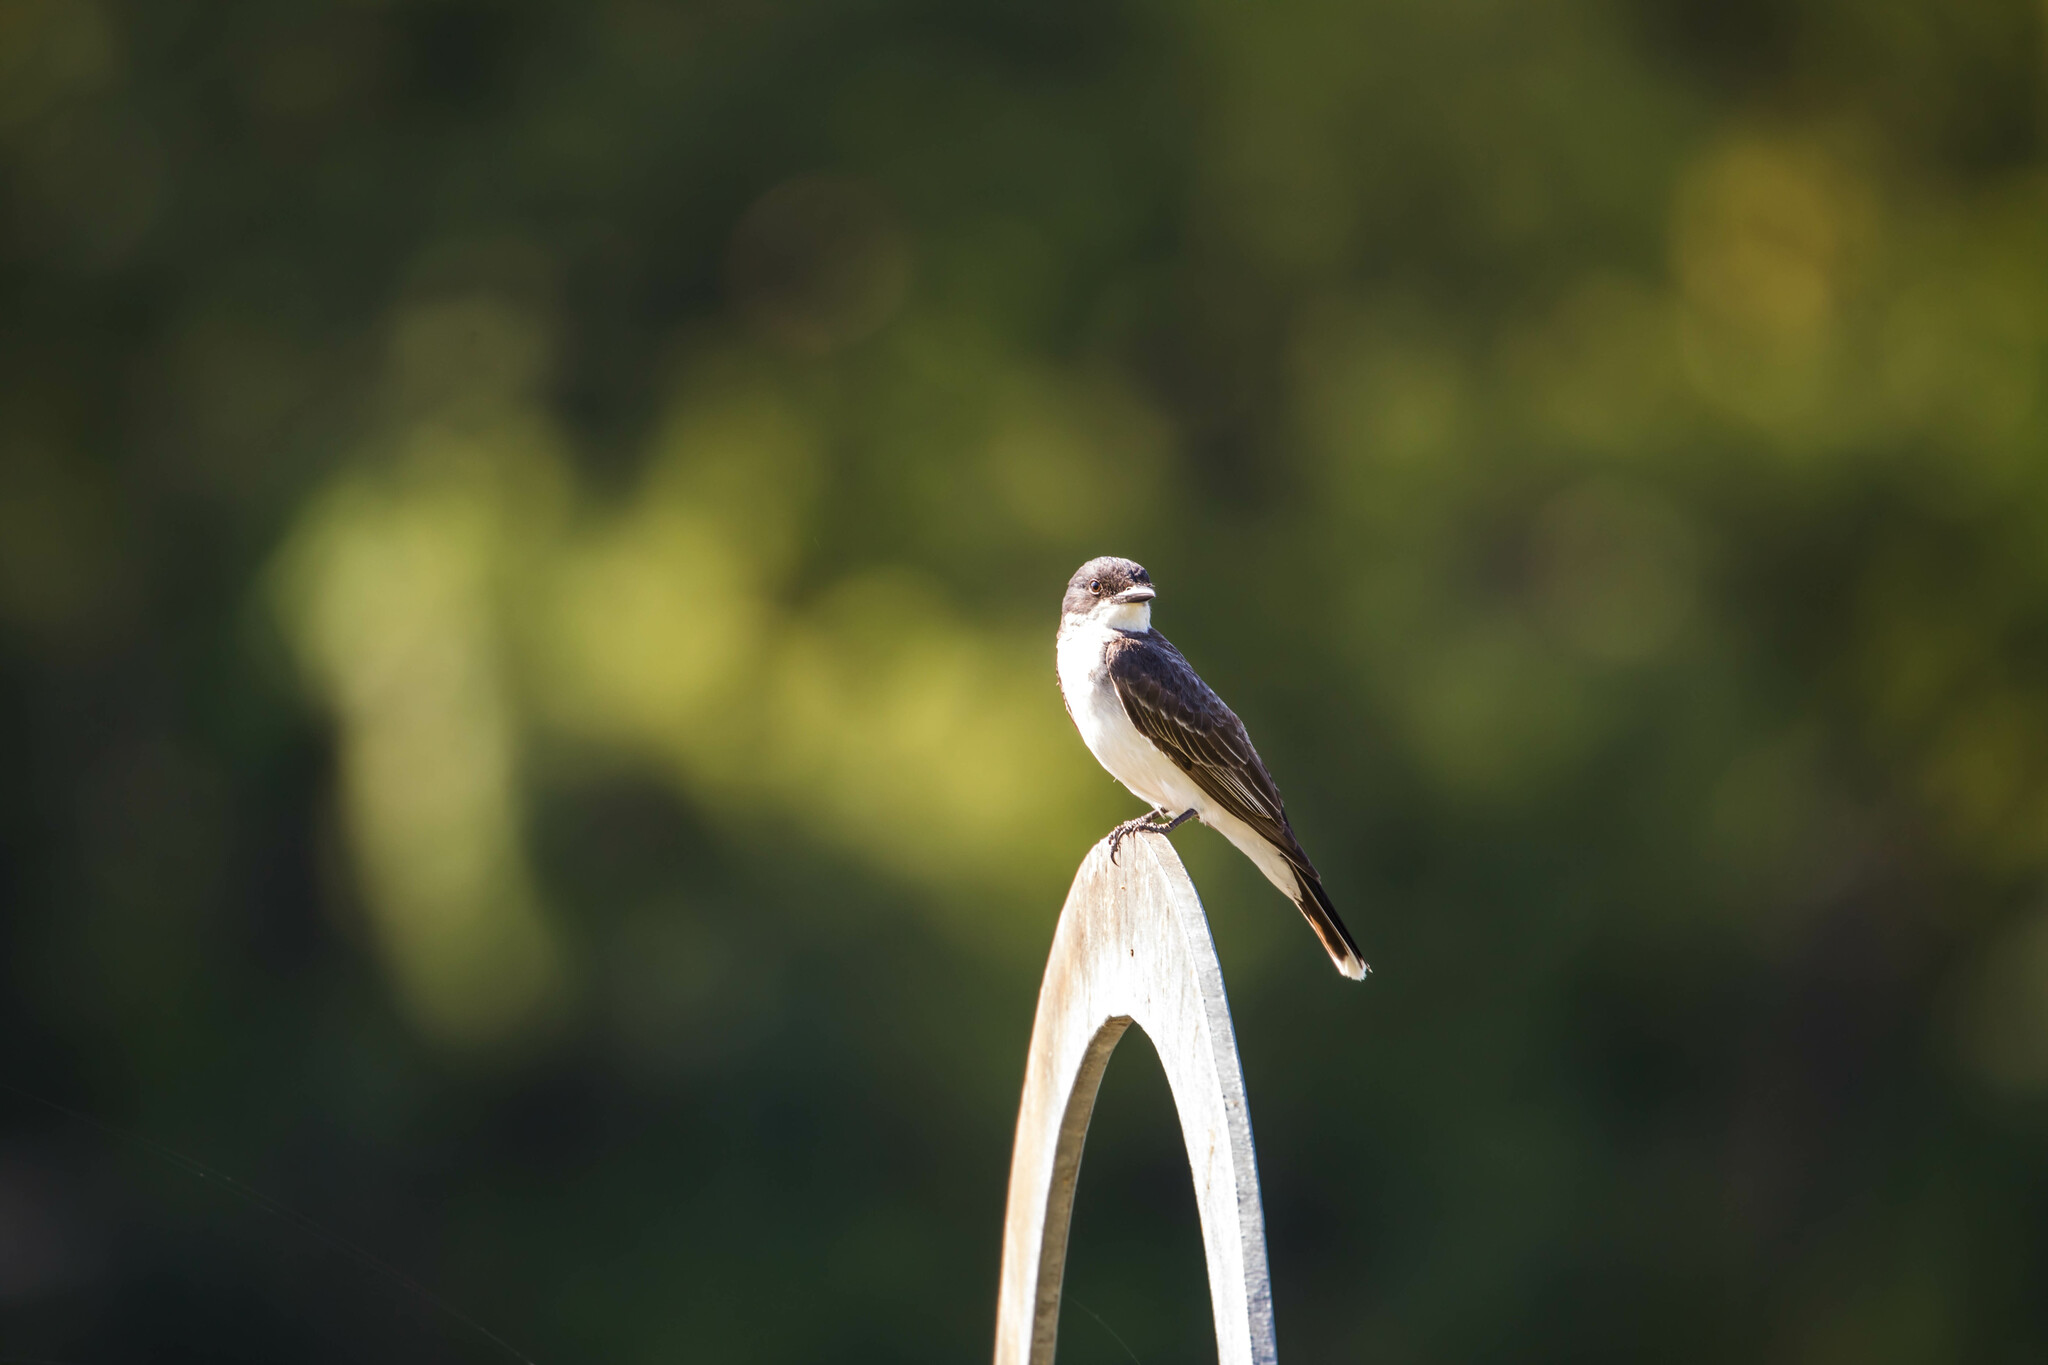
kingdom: Animalia
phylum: Chordata
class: Aves
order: Passeriformes
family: Tyrannidae
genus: Tyrannus
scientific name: Tyrannus tyrannus
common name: Eastern kingbird
